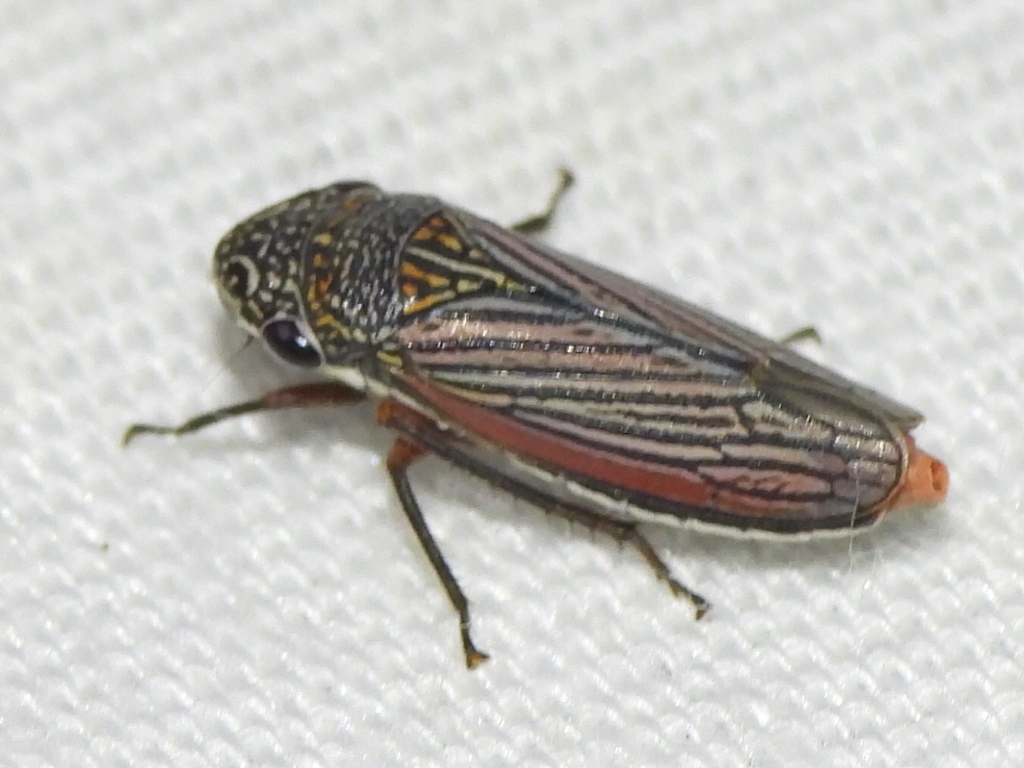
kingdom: Animalia
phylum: Arthropoda
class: Insecta
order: Hemiptera
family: Cicadellidae
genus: Cuerna
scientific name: Cuerna costalis
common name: Lateral-lined sharpshooter
